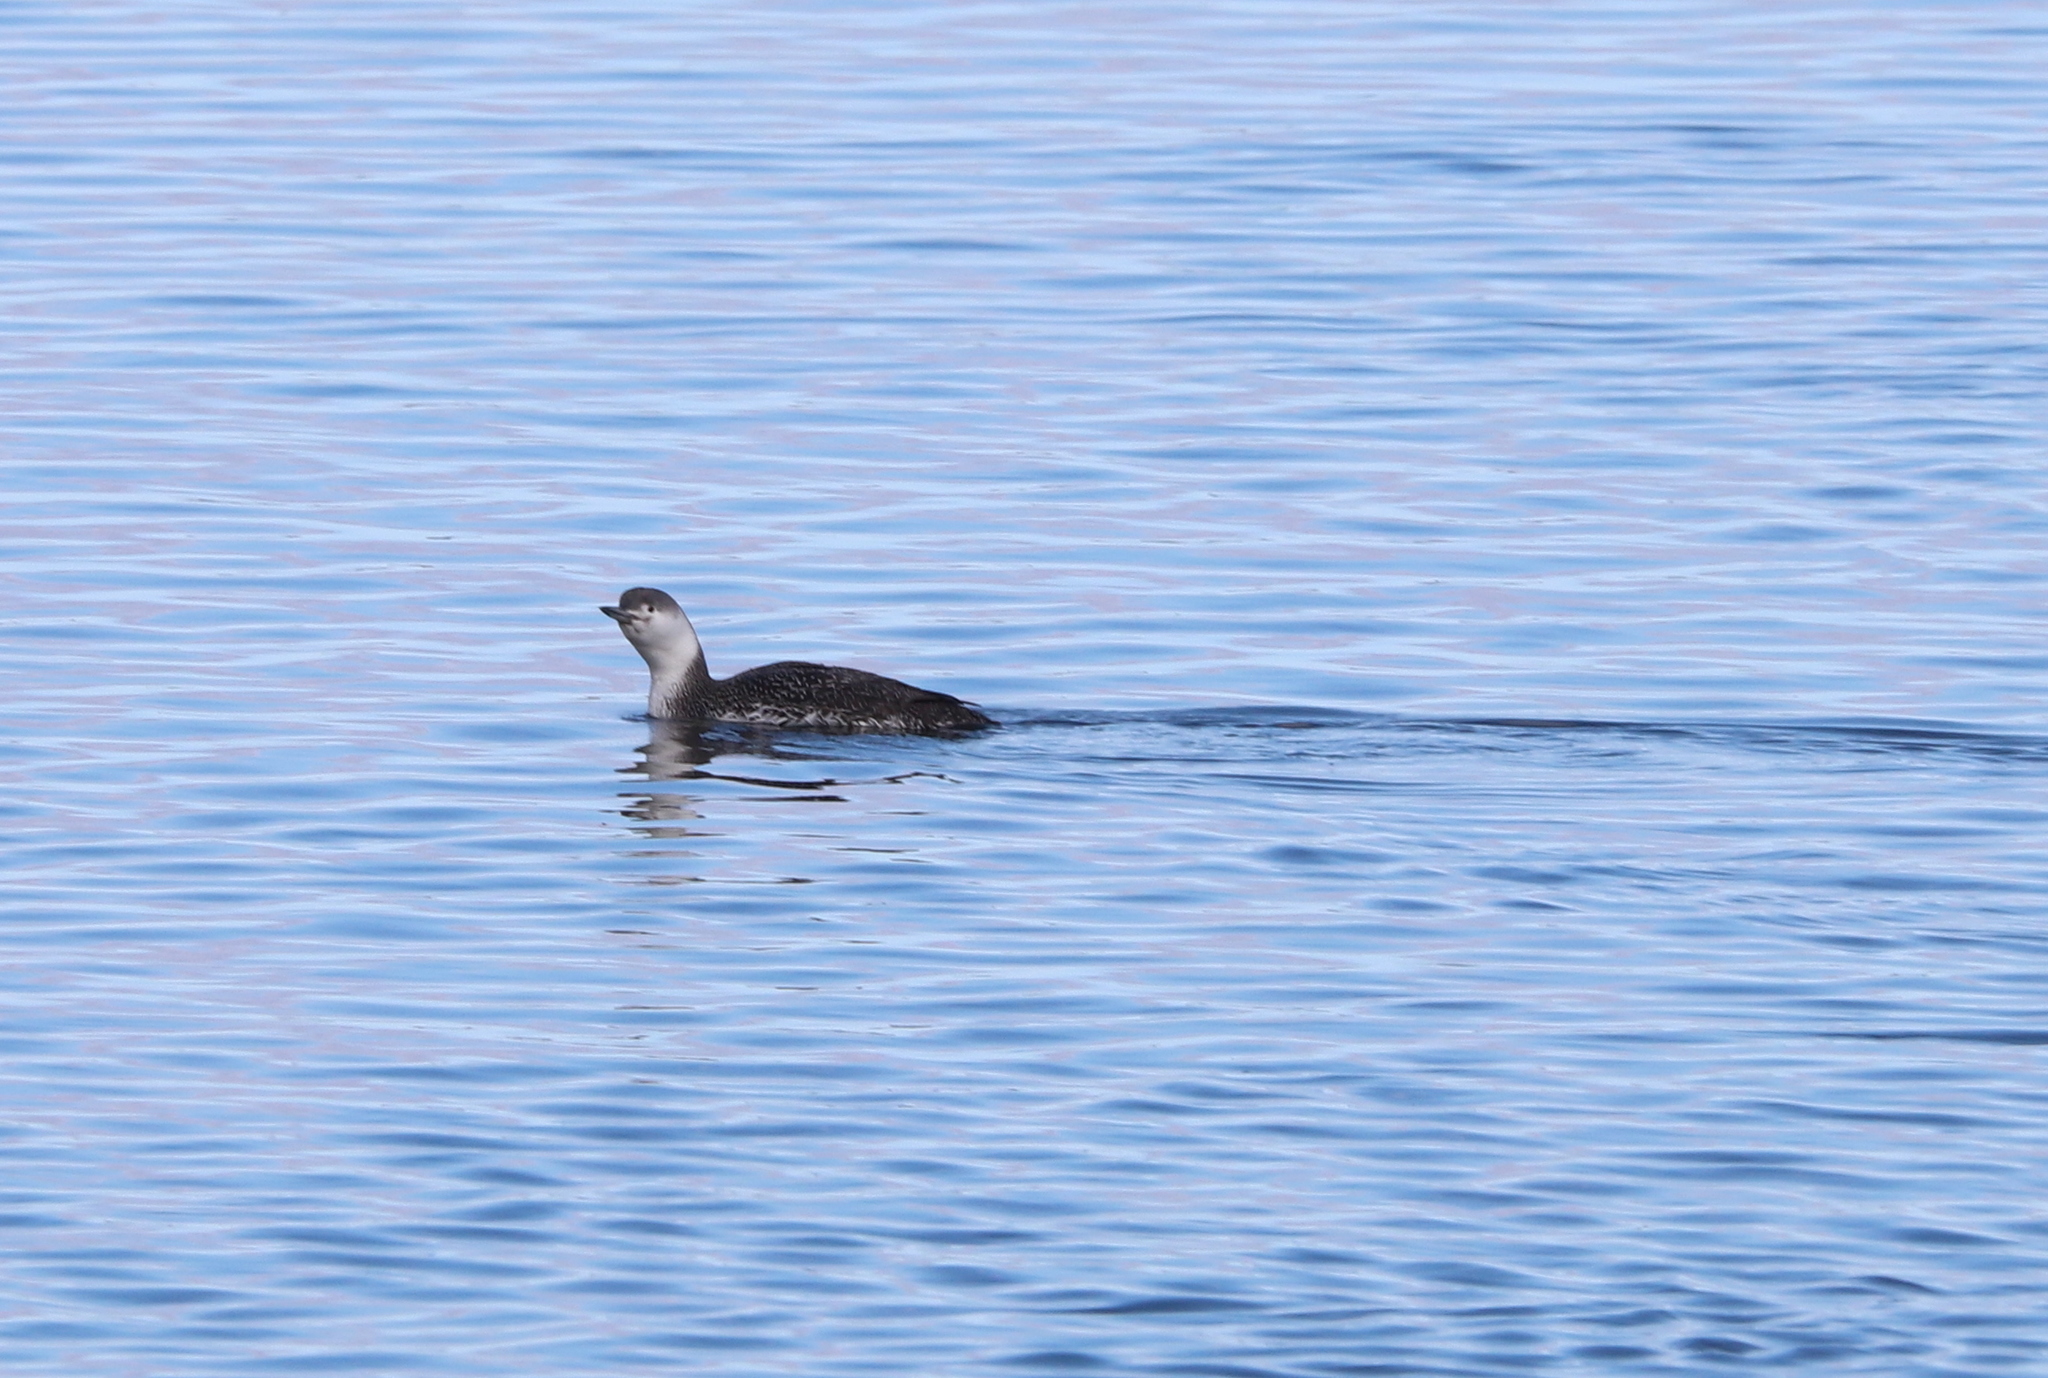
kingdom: Animalia
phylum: Chordata
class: Aves
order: Gaviiformes
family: Gaviidae
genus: Gavia
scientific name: Gavia stellata
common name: Red-throated loon
